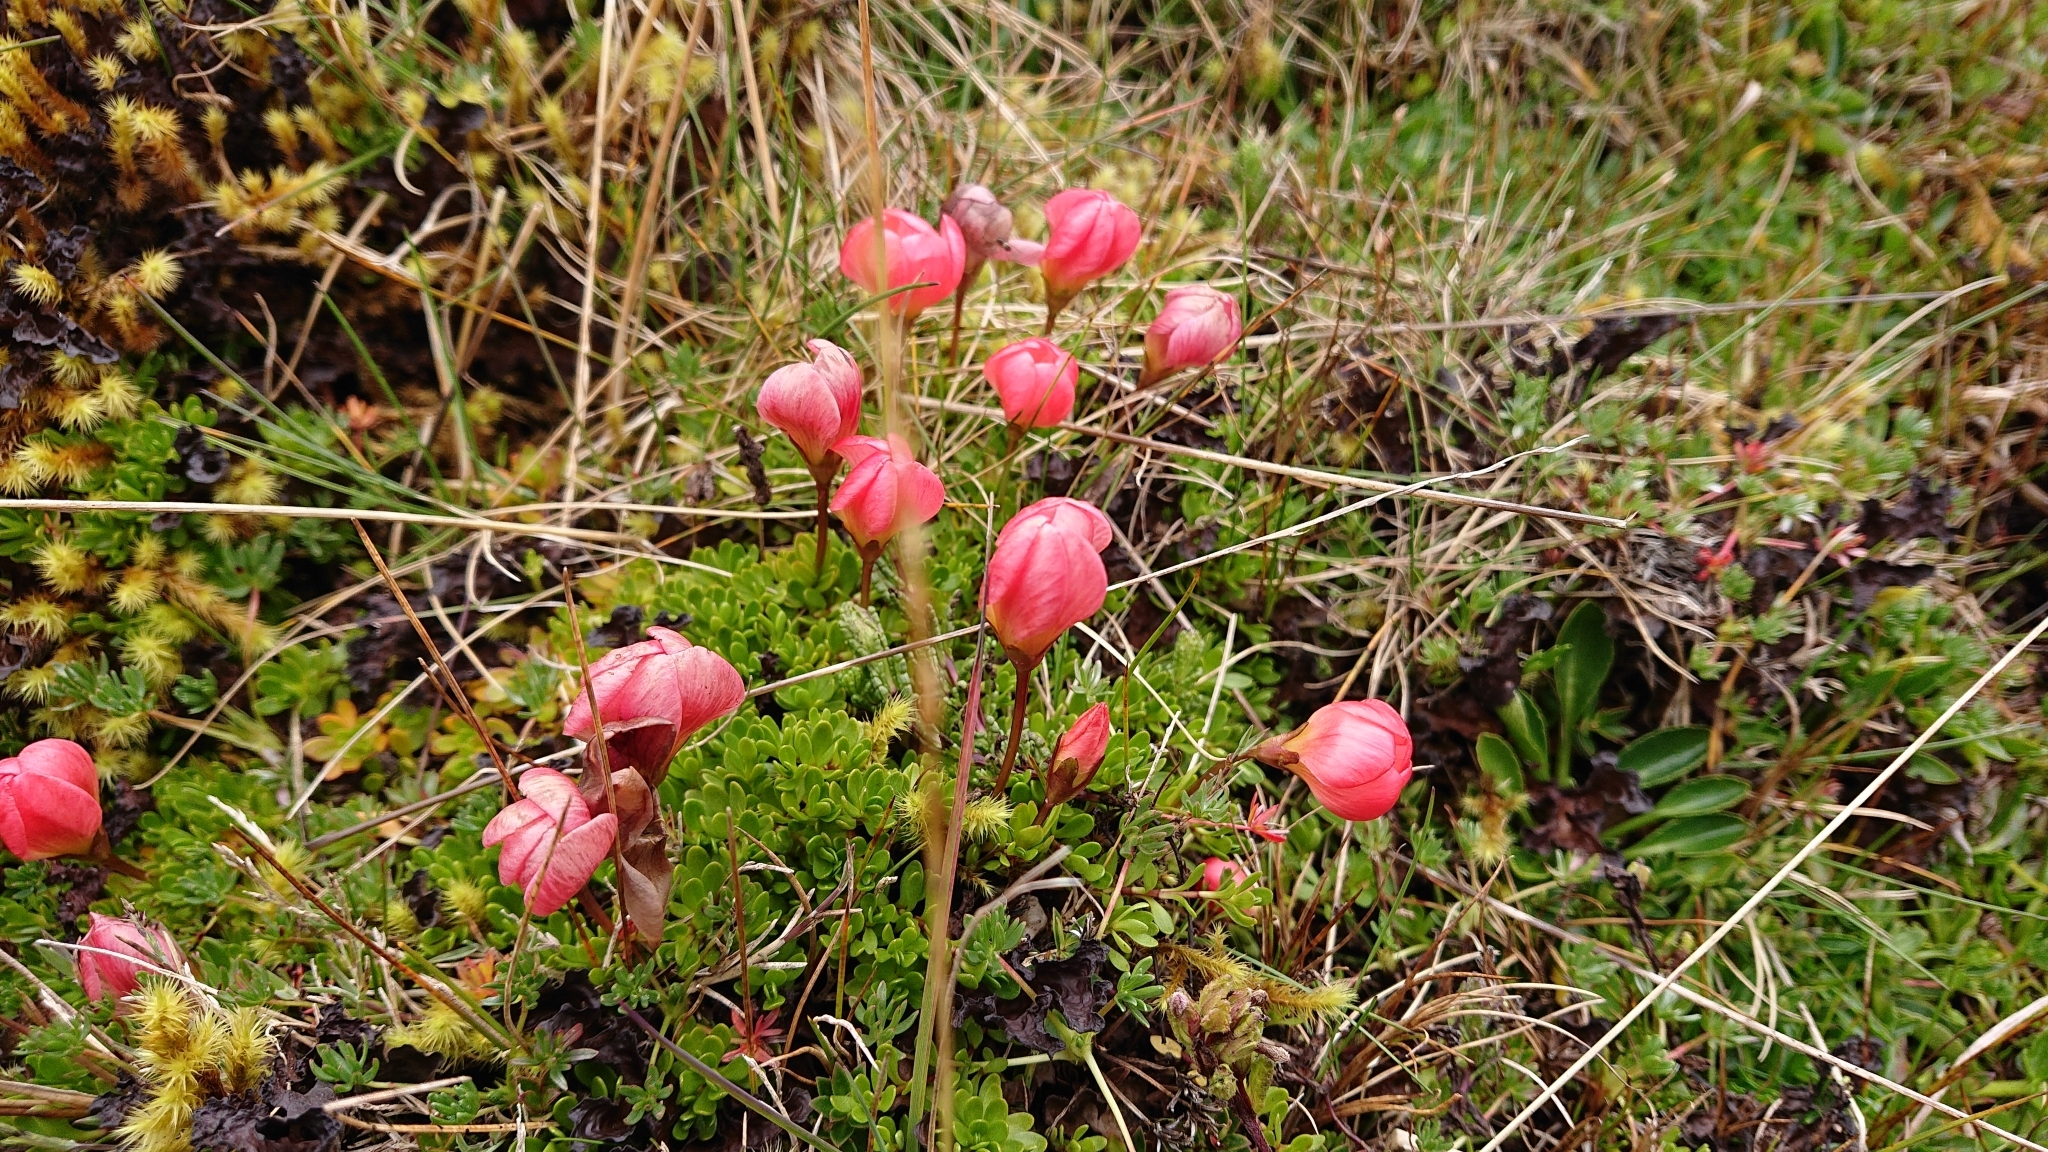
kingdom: Plantae
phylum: Tracheophyta
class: Magnoliopsida
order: Gentianales
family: Gentianaceae
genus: Gentianella
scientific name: Gentianella rupicola
